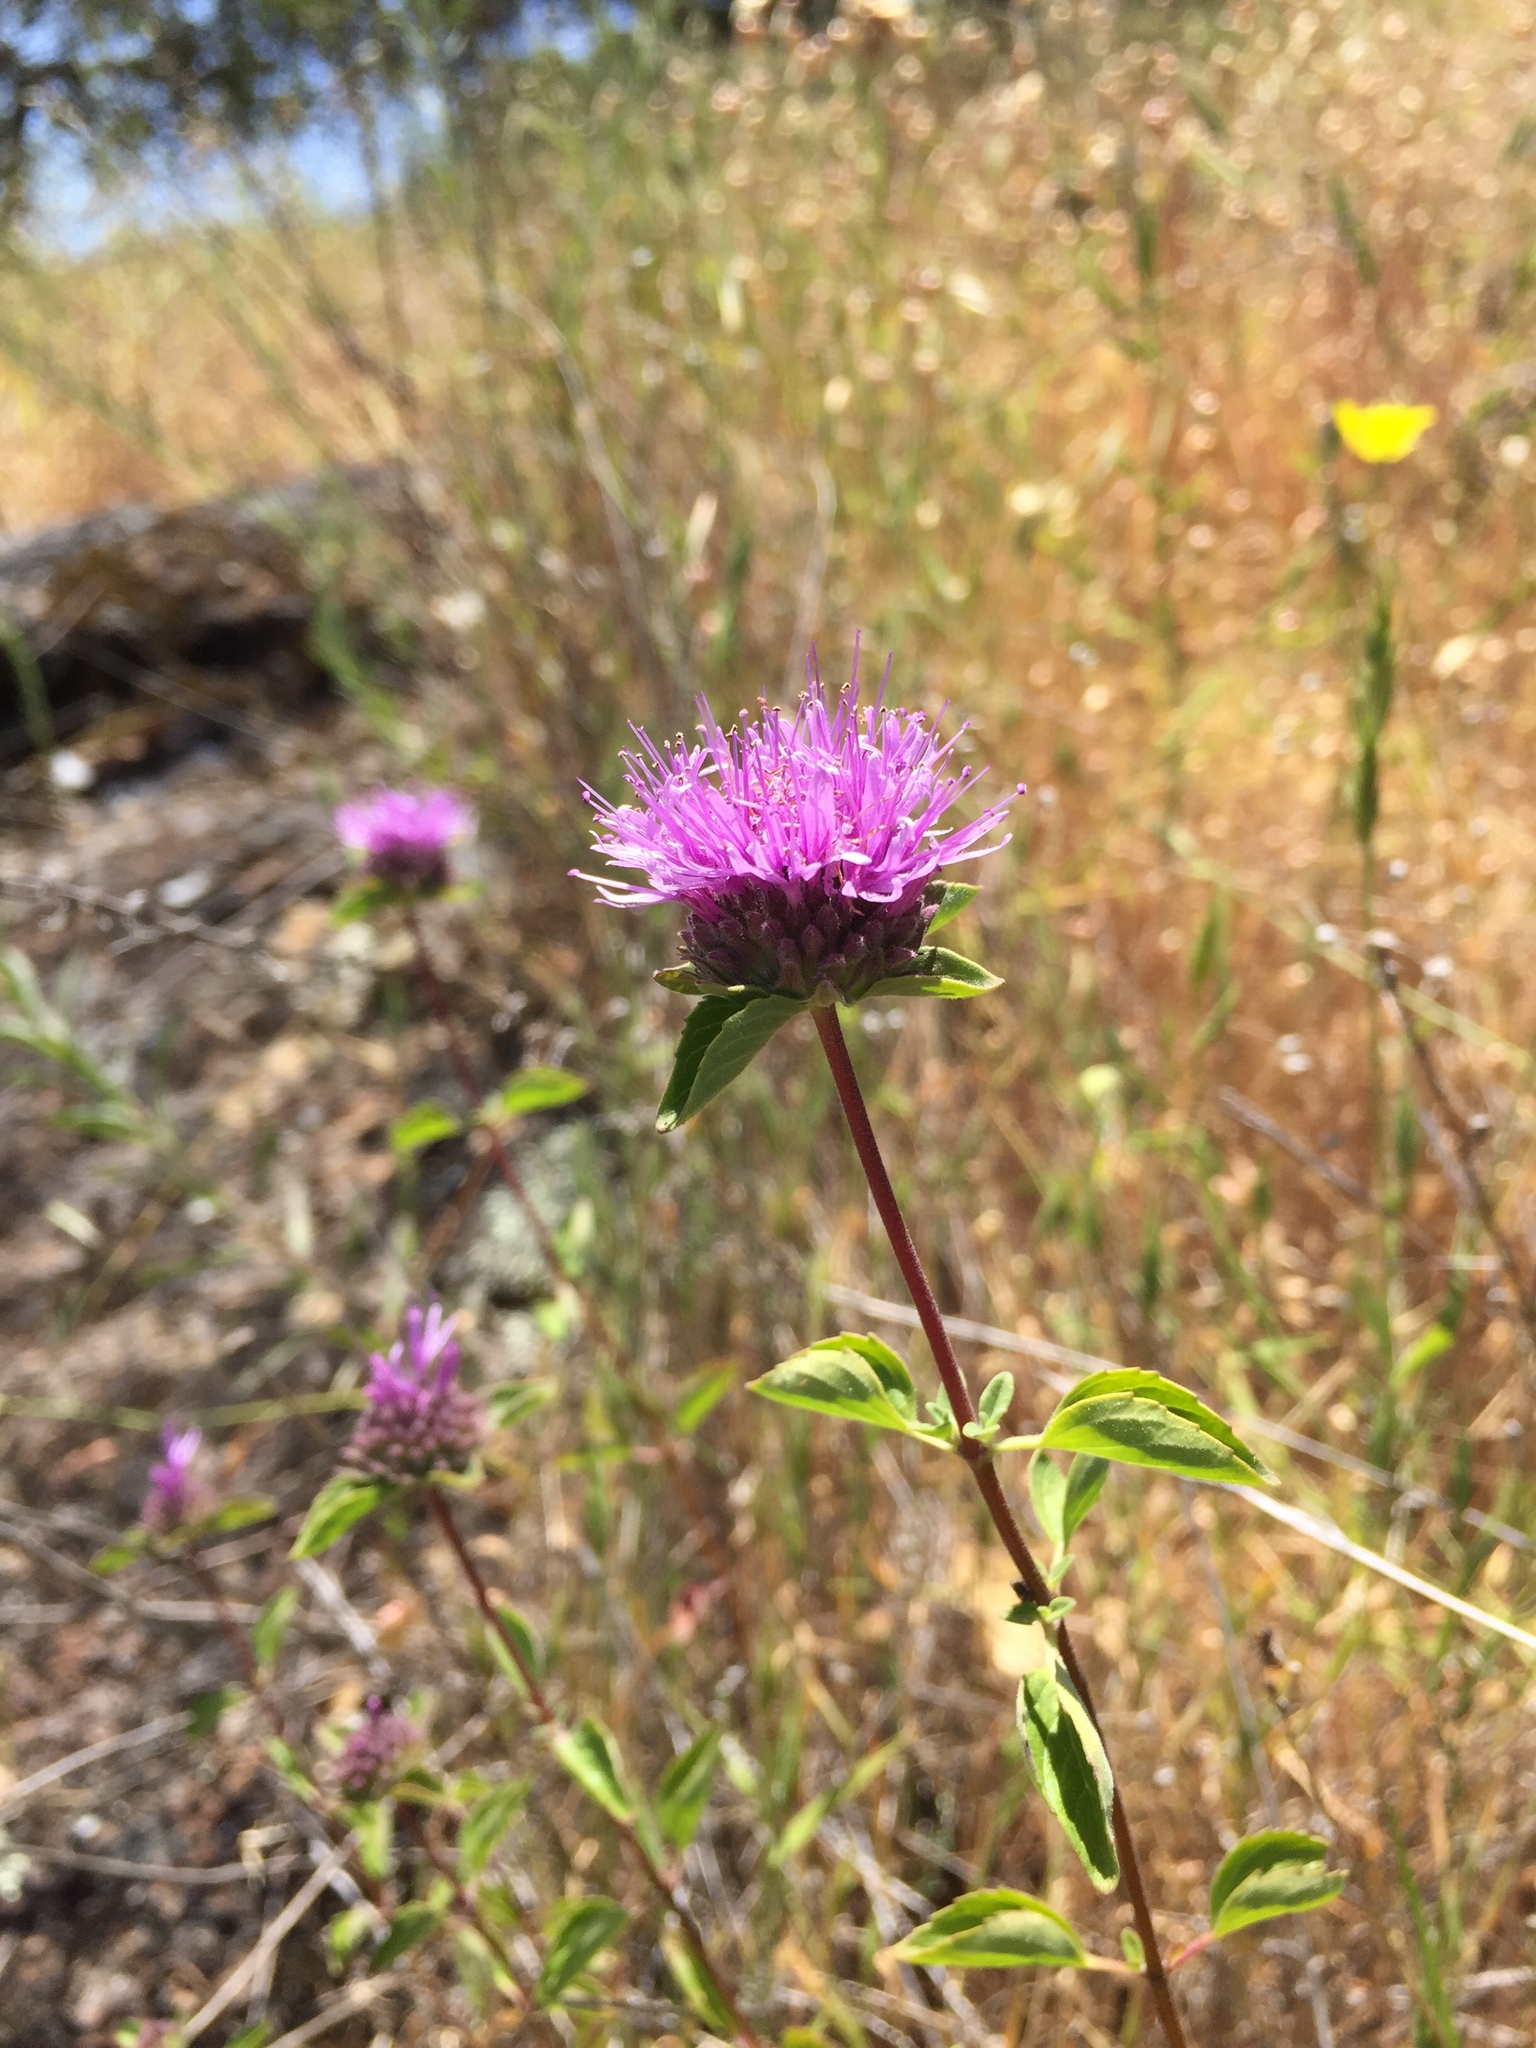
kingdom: Plantae
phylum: Tracheophyta
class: Magnoliopsida
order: Lamiales
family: Lamiaceae
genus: Monardella
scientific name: Monardella odoratissima
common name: Pacific monardella
